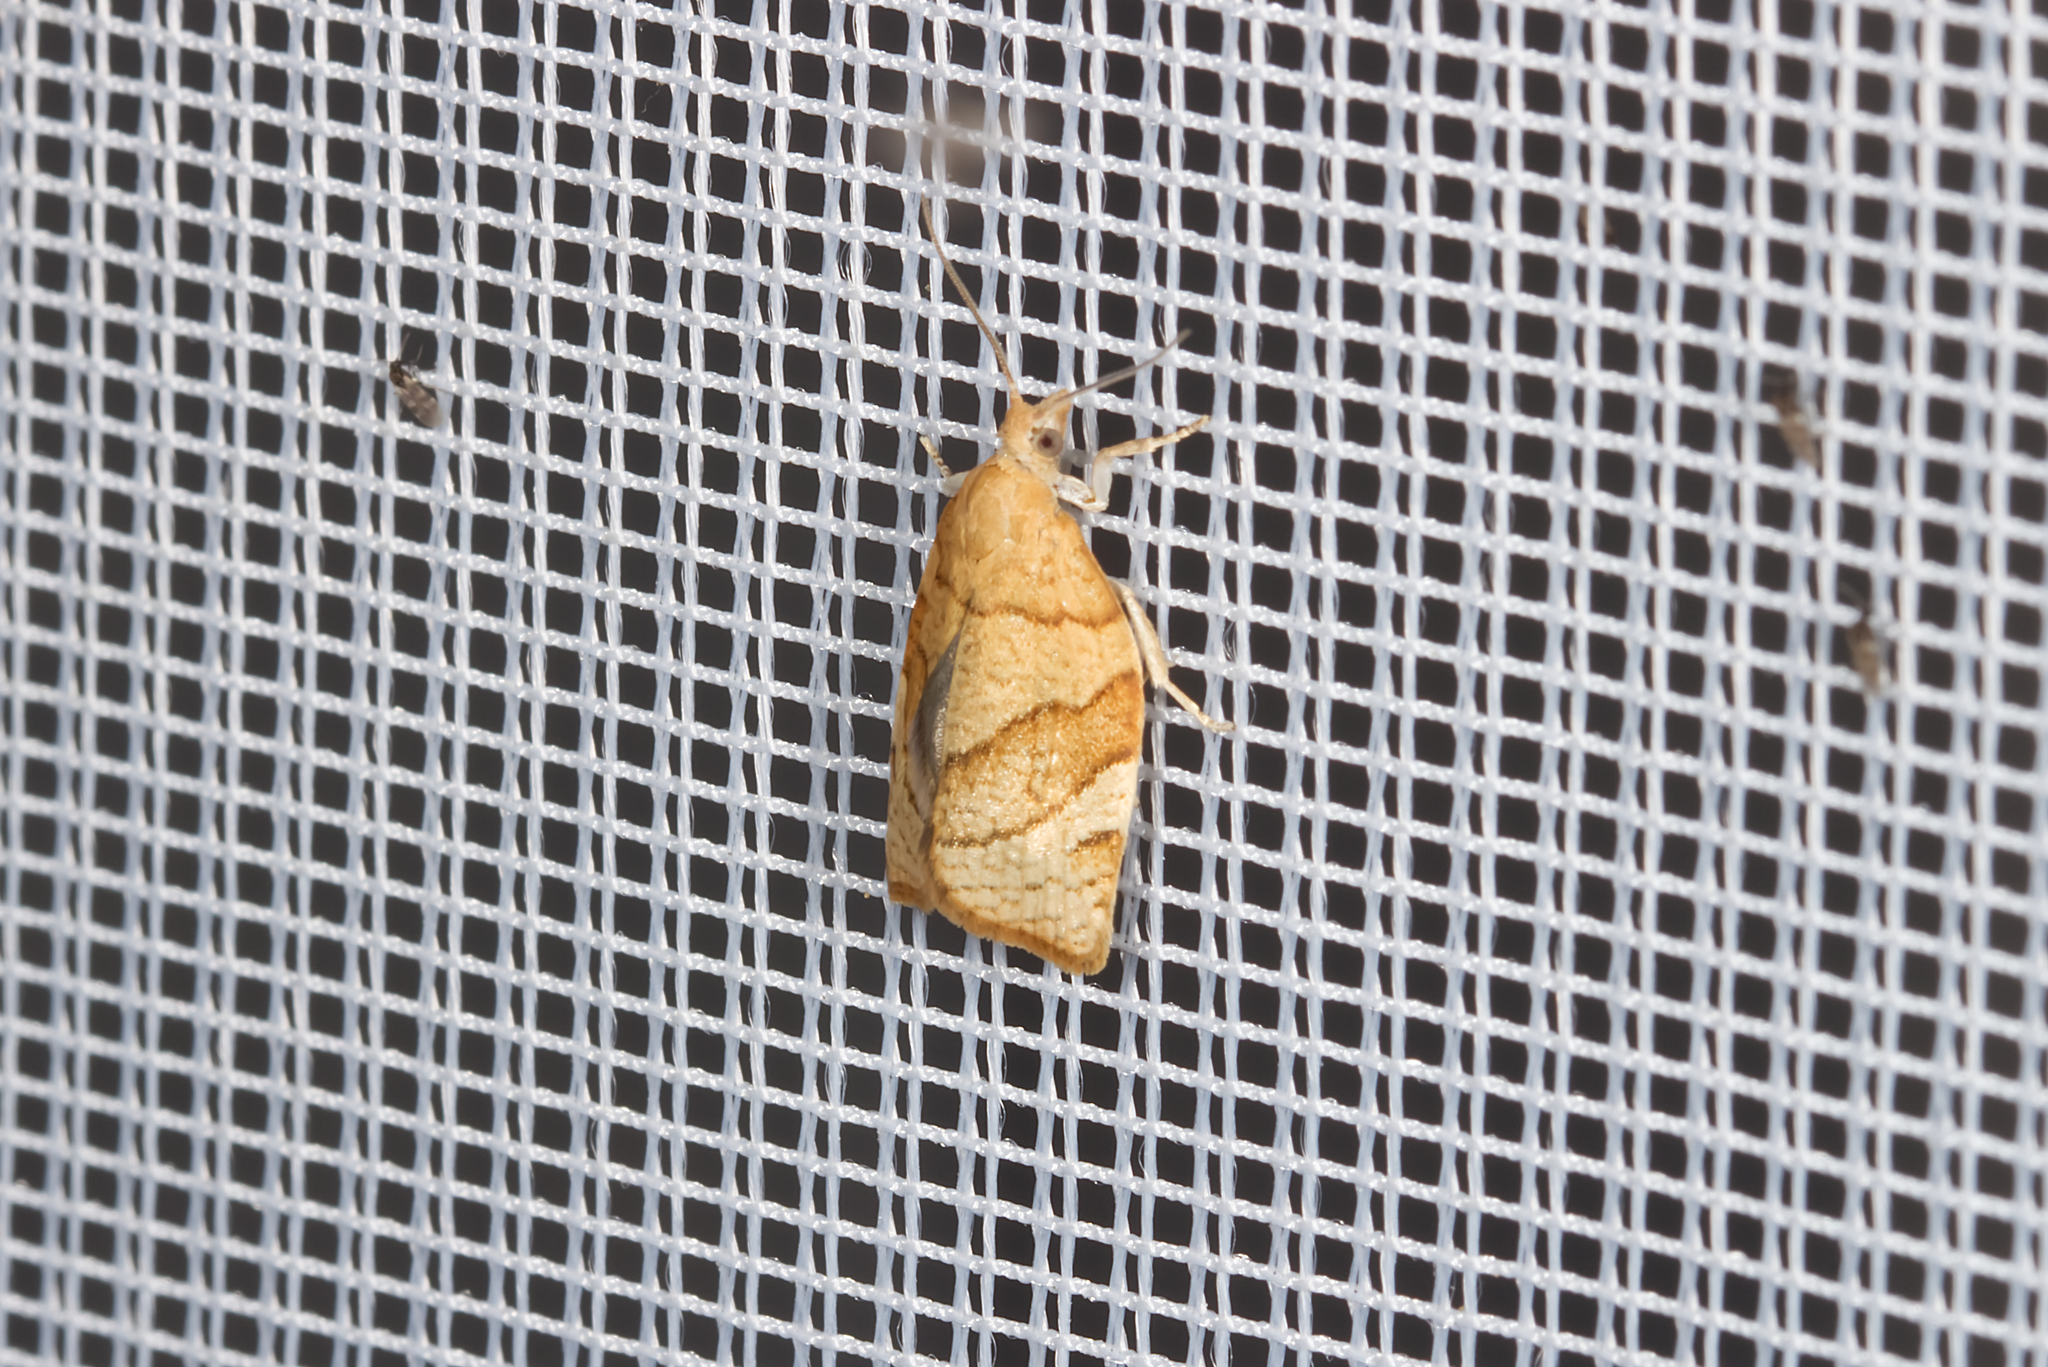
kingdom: Animalia
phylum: Arthropoda
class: Insecta
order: Lepidoptera
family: Tortricidae
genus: Pandemis
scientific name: Pandemis cerasana
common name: Barred fruit-tree tortrix
